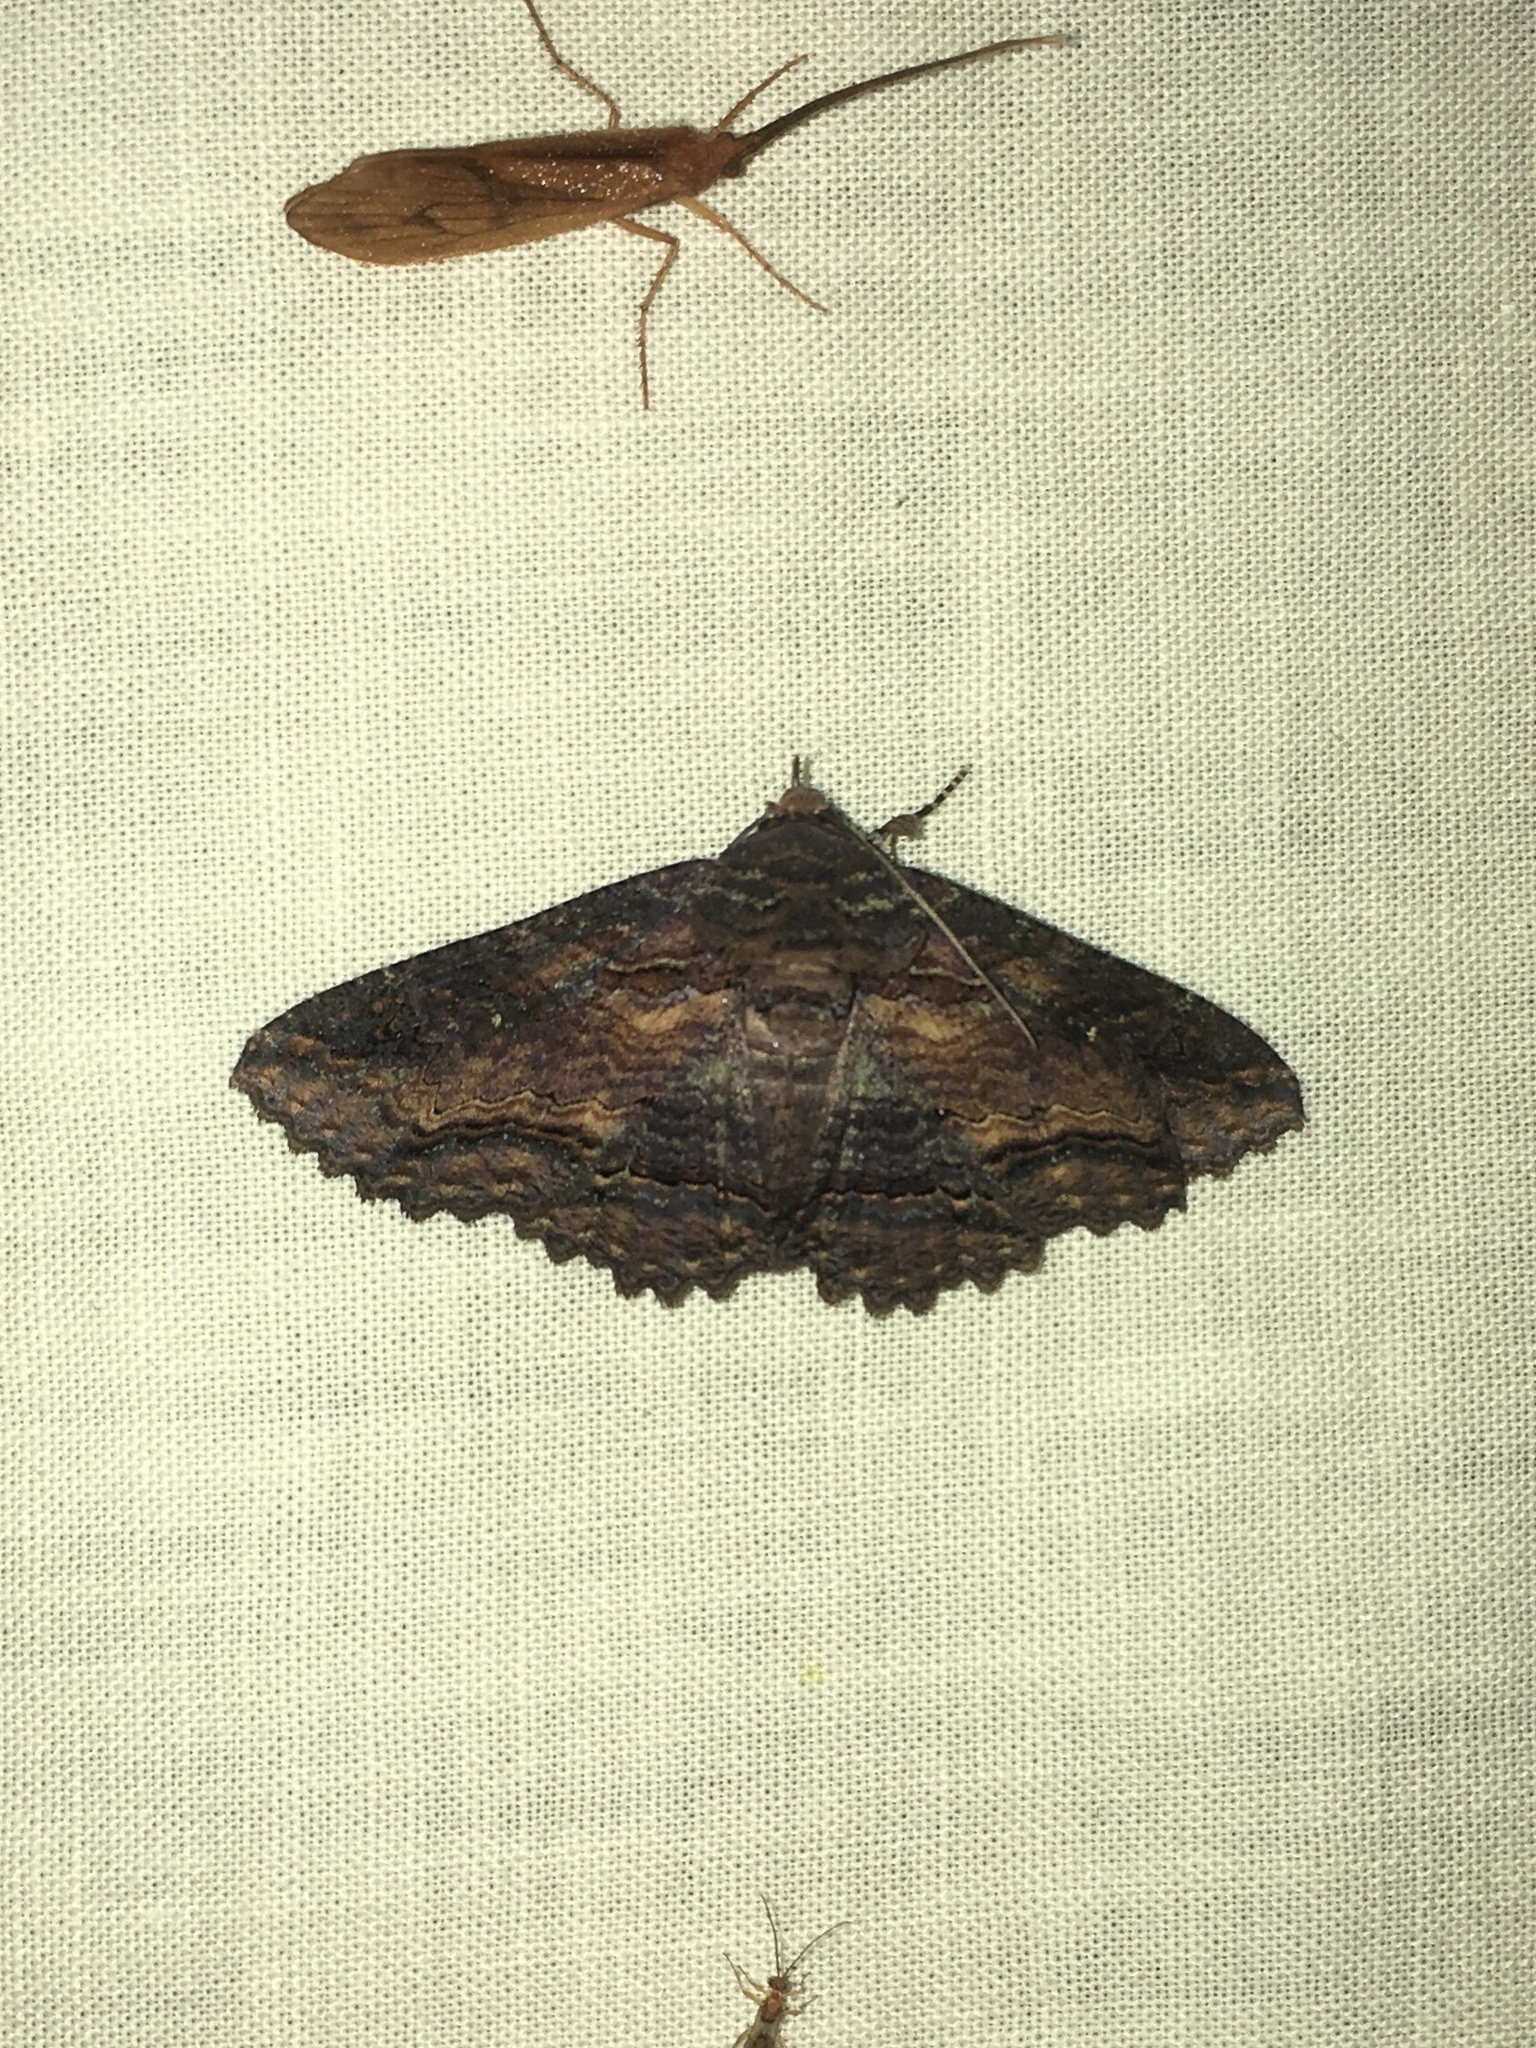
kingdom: Animalia
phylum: Arthropoda
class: Insecta
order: Lepidoptera
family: Erebidae
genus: Zale
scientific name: Zale lunata
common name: Lunate zale moth
